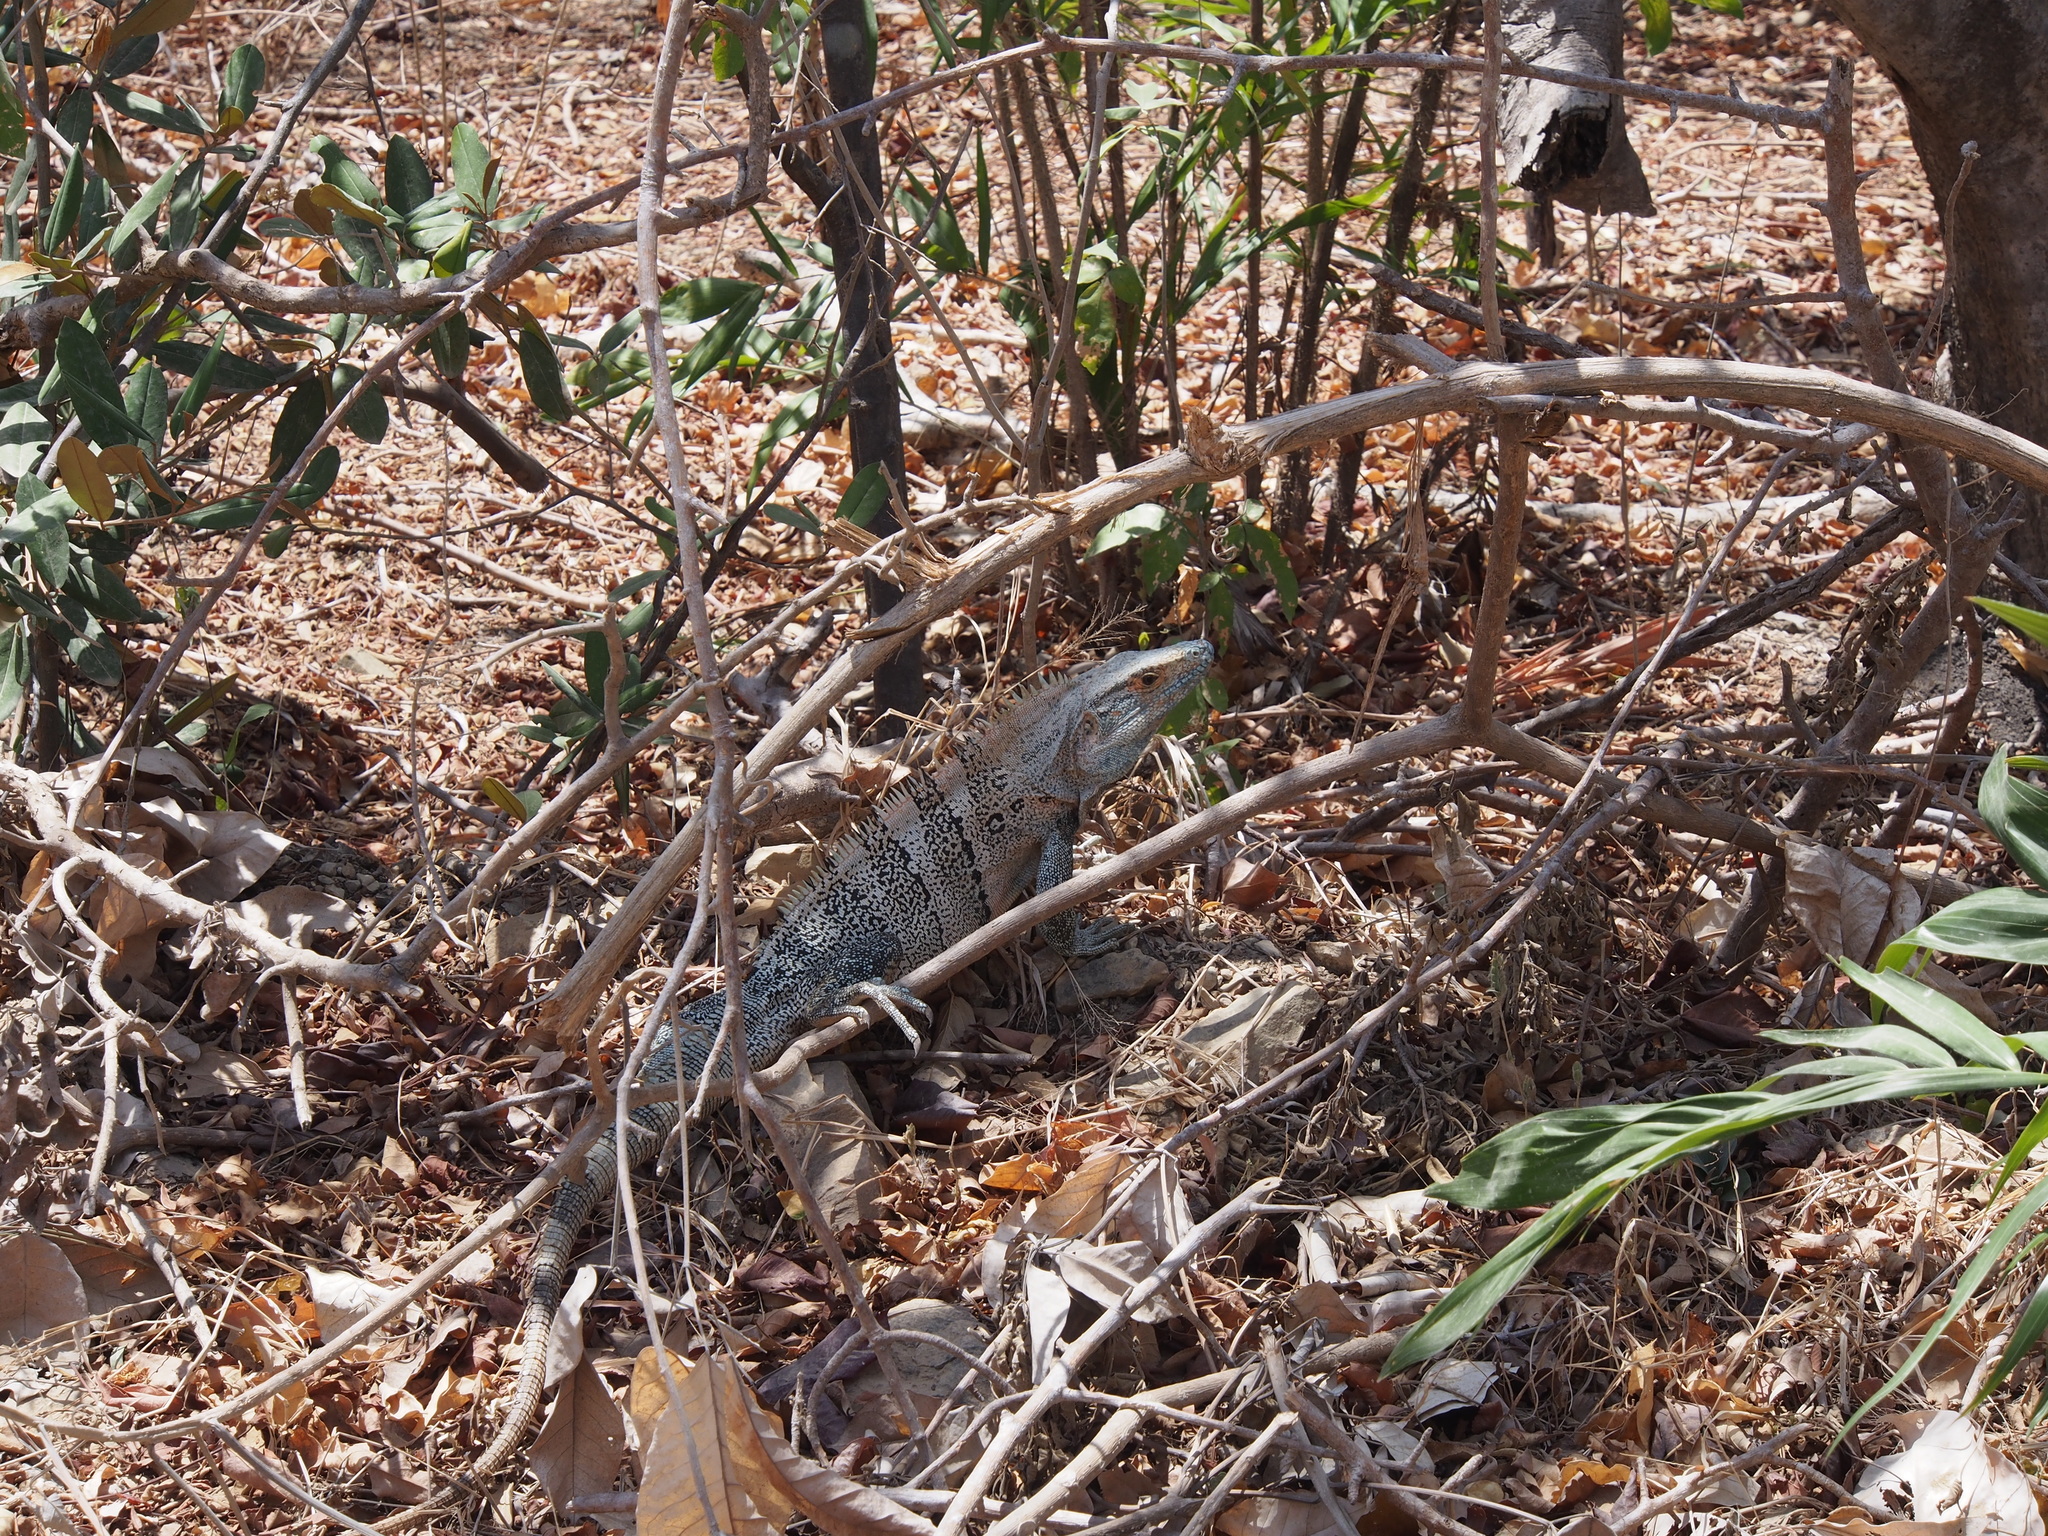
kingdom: Animalia
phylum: Chordata
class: Squamata
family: Iguanidae
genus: Ctenosaura
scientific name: Ctenosaura similis
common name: Black spiny-tailed iguana
